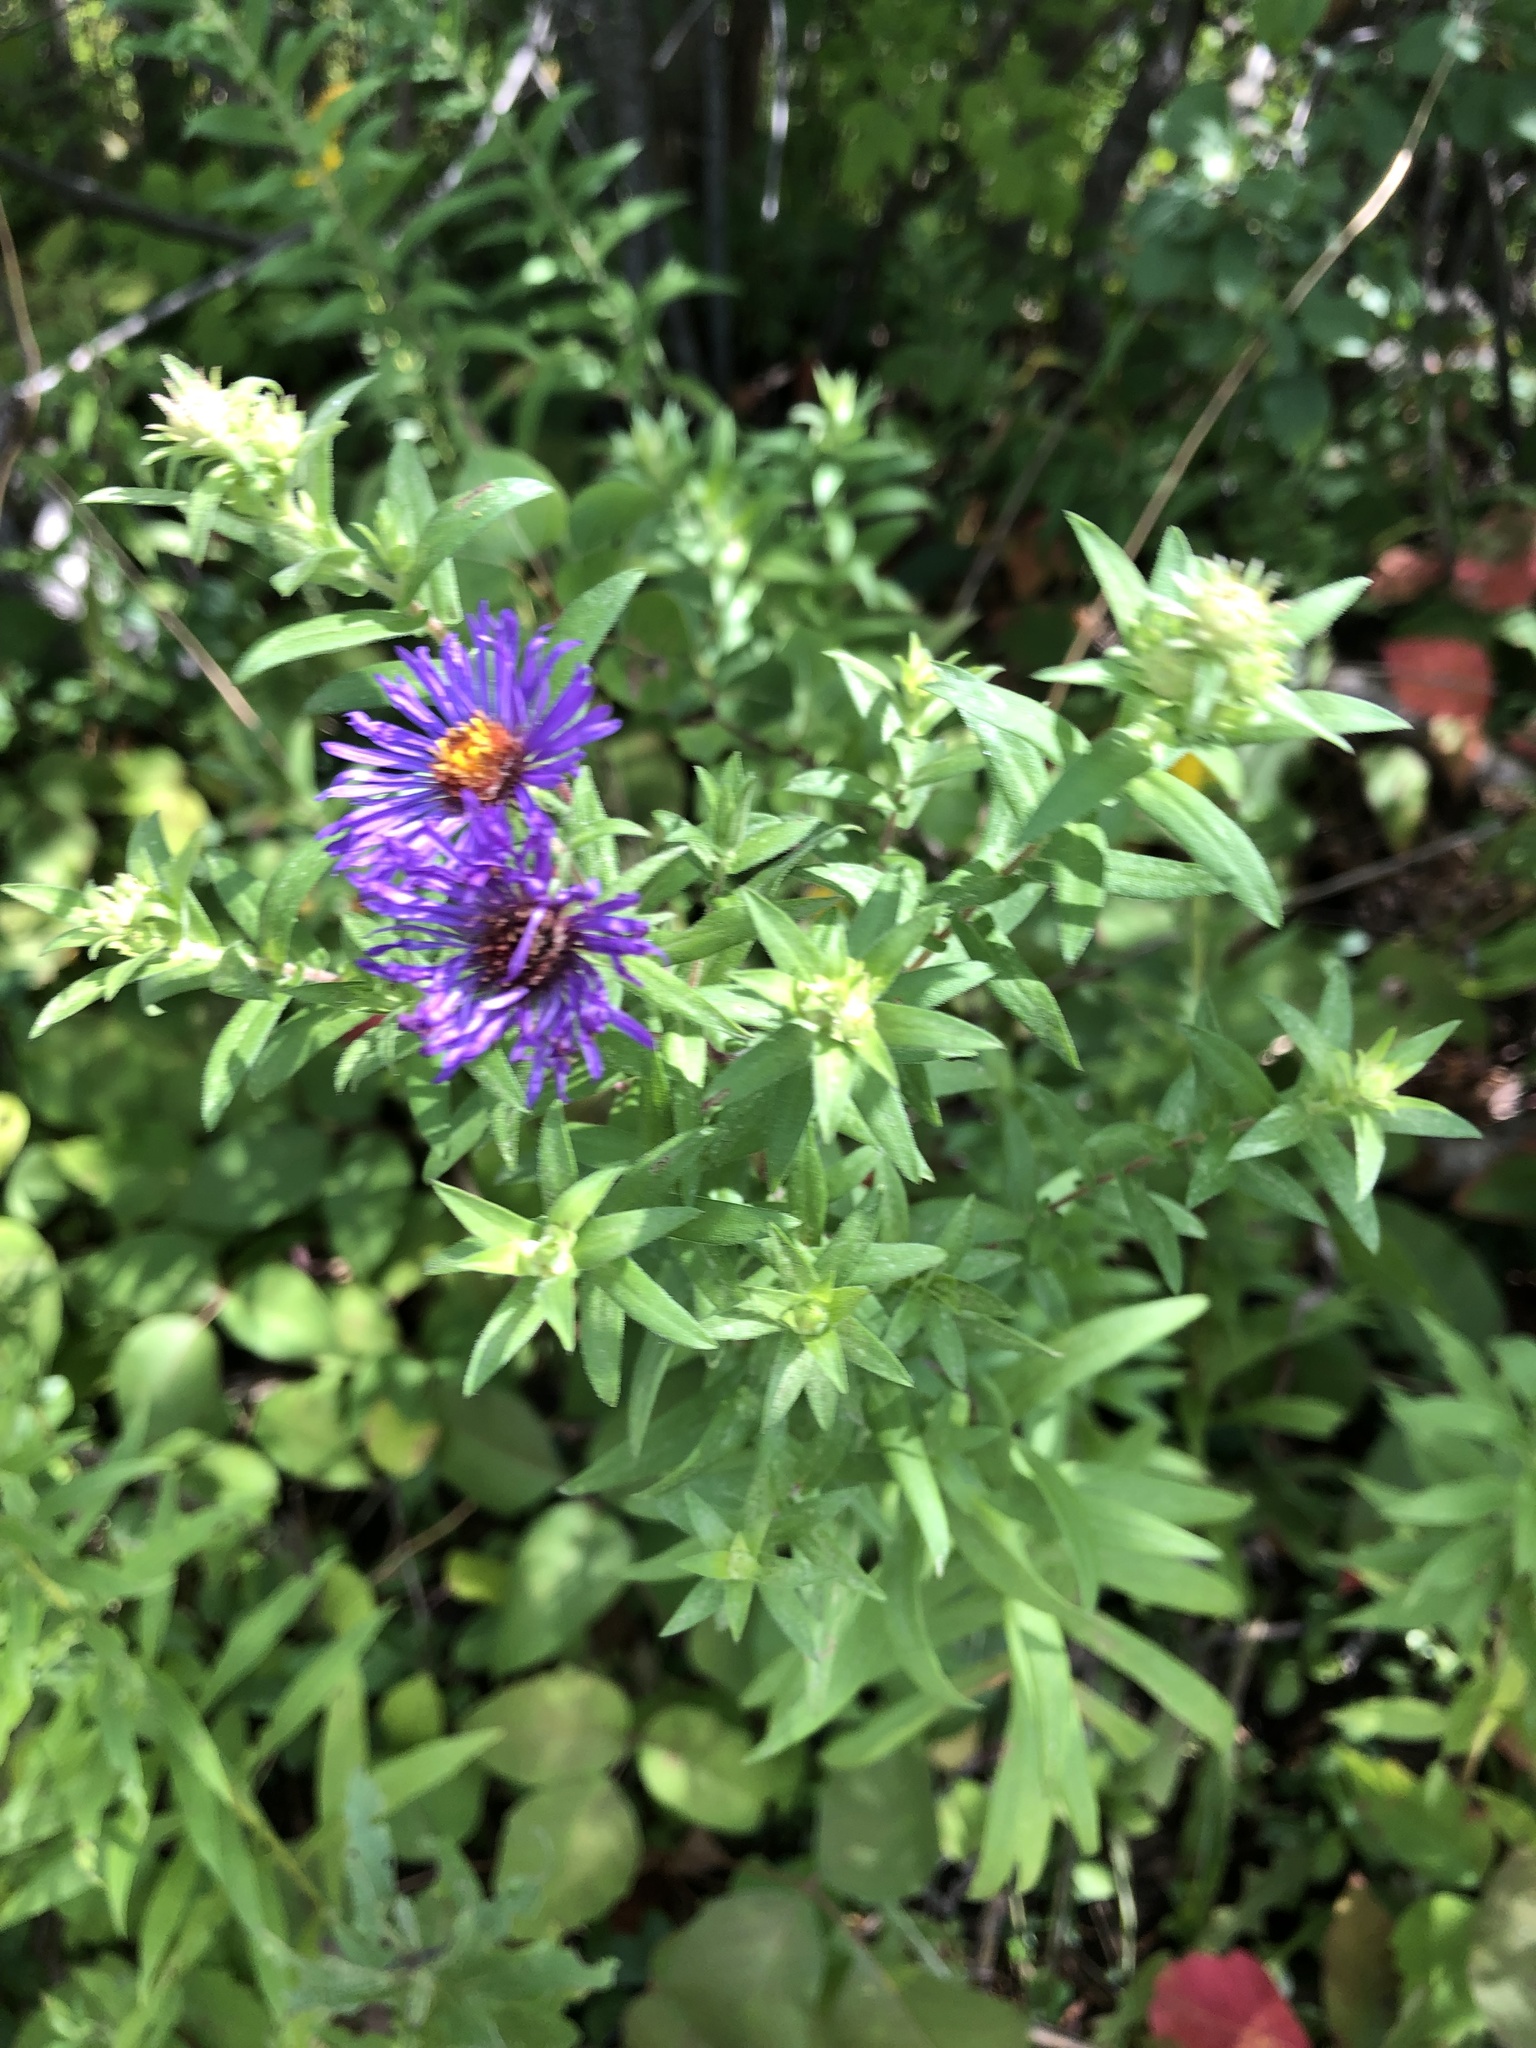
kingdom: Plantae
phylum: Tracheophyta
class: Magnoliopsida
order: Asterales
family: Asteraceae
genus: Symphyotrichum
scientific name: Symphyotrichum novae-angliae
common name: Michaelmas daisy
